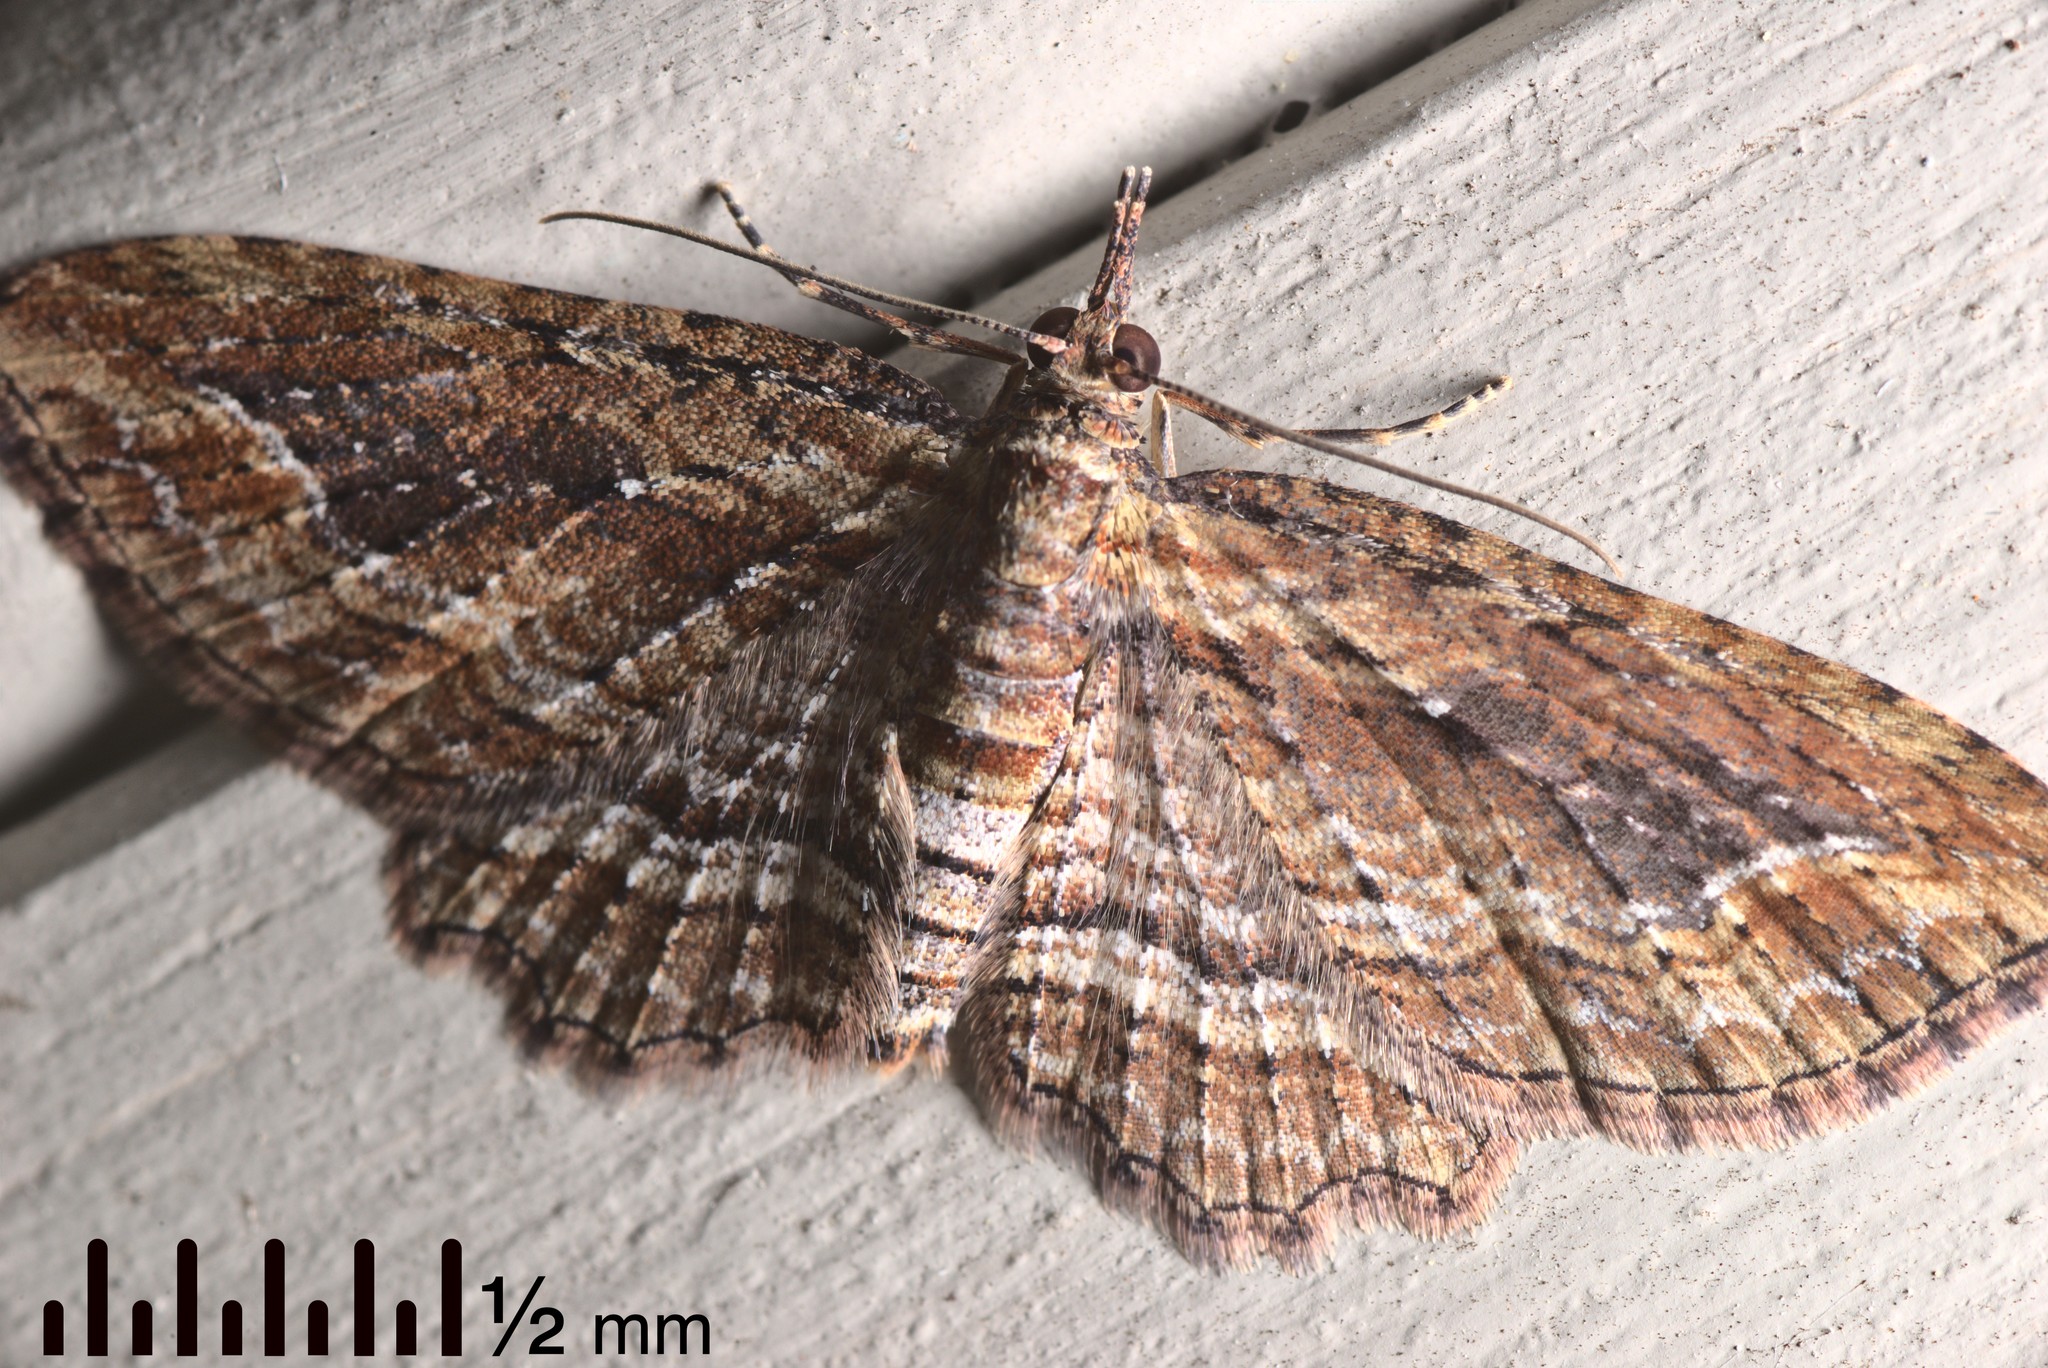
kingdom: Animalia
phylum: Arthropoda
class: Insecta
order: Lepidoptera
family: Geometridae
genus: Chloroclystis
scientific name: Chloroclystis filata
